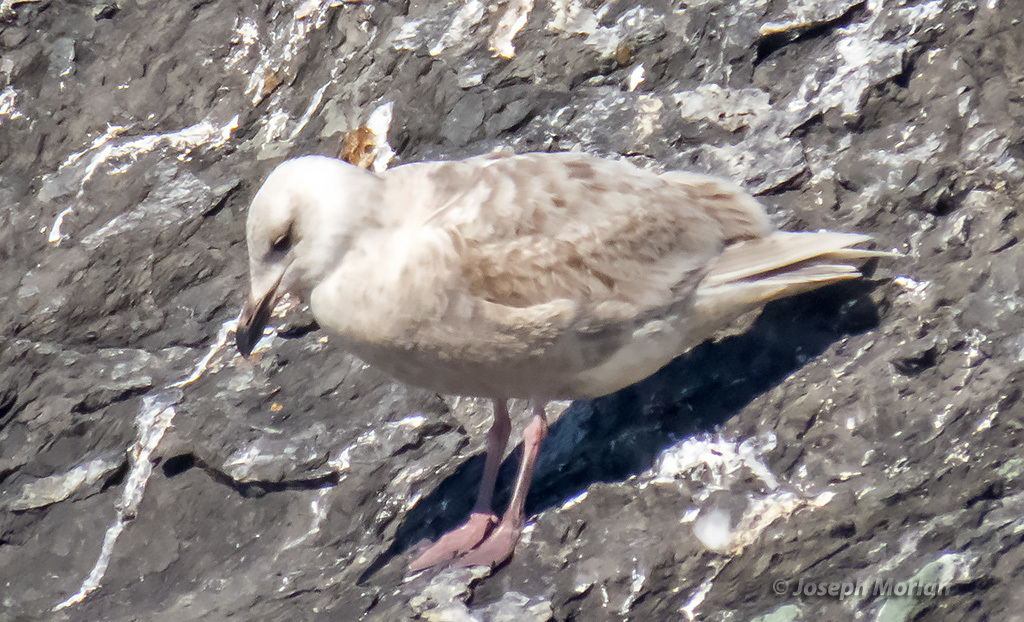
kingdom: Animalia
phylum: Chordata
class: Aves
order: Charadriiformes
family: Laridae
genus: Larus
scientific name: Larus glaucescens
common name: Glaucous-winged gull
